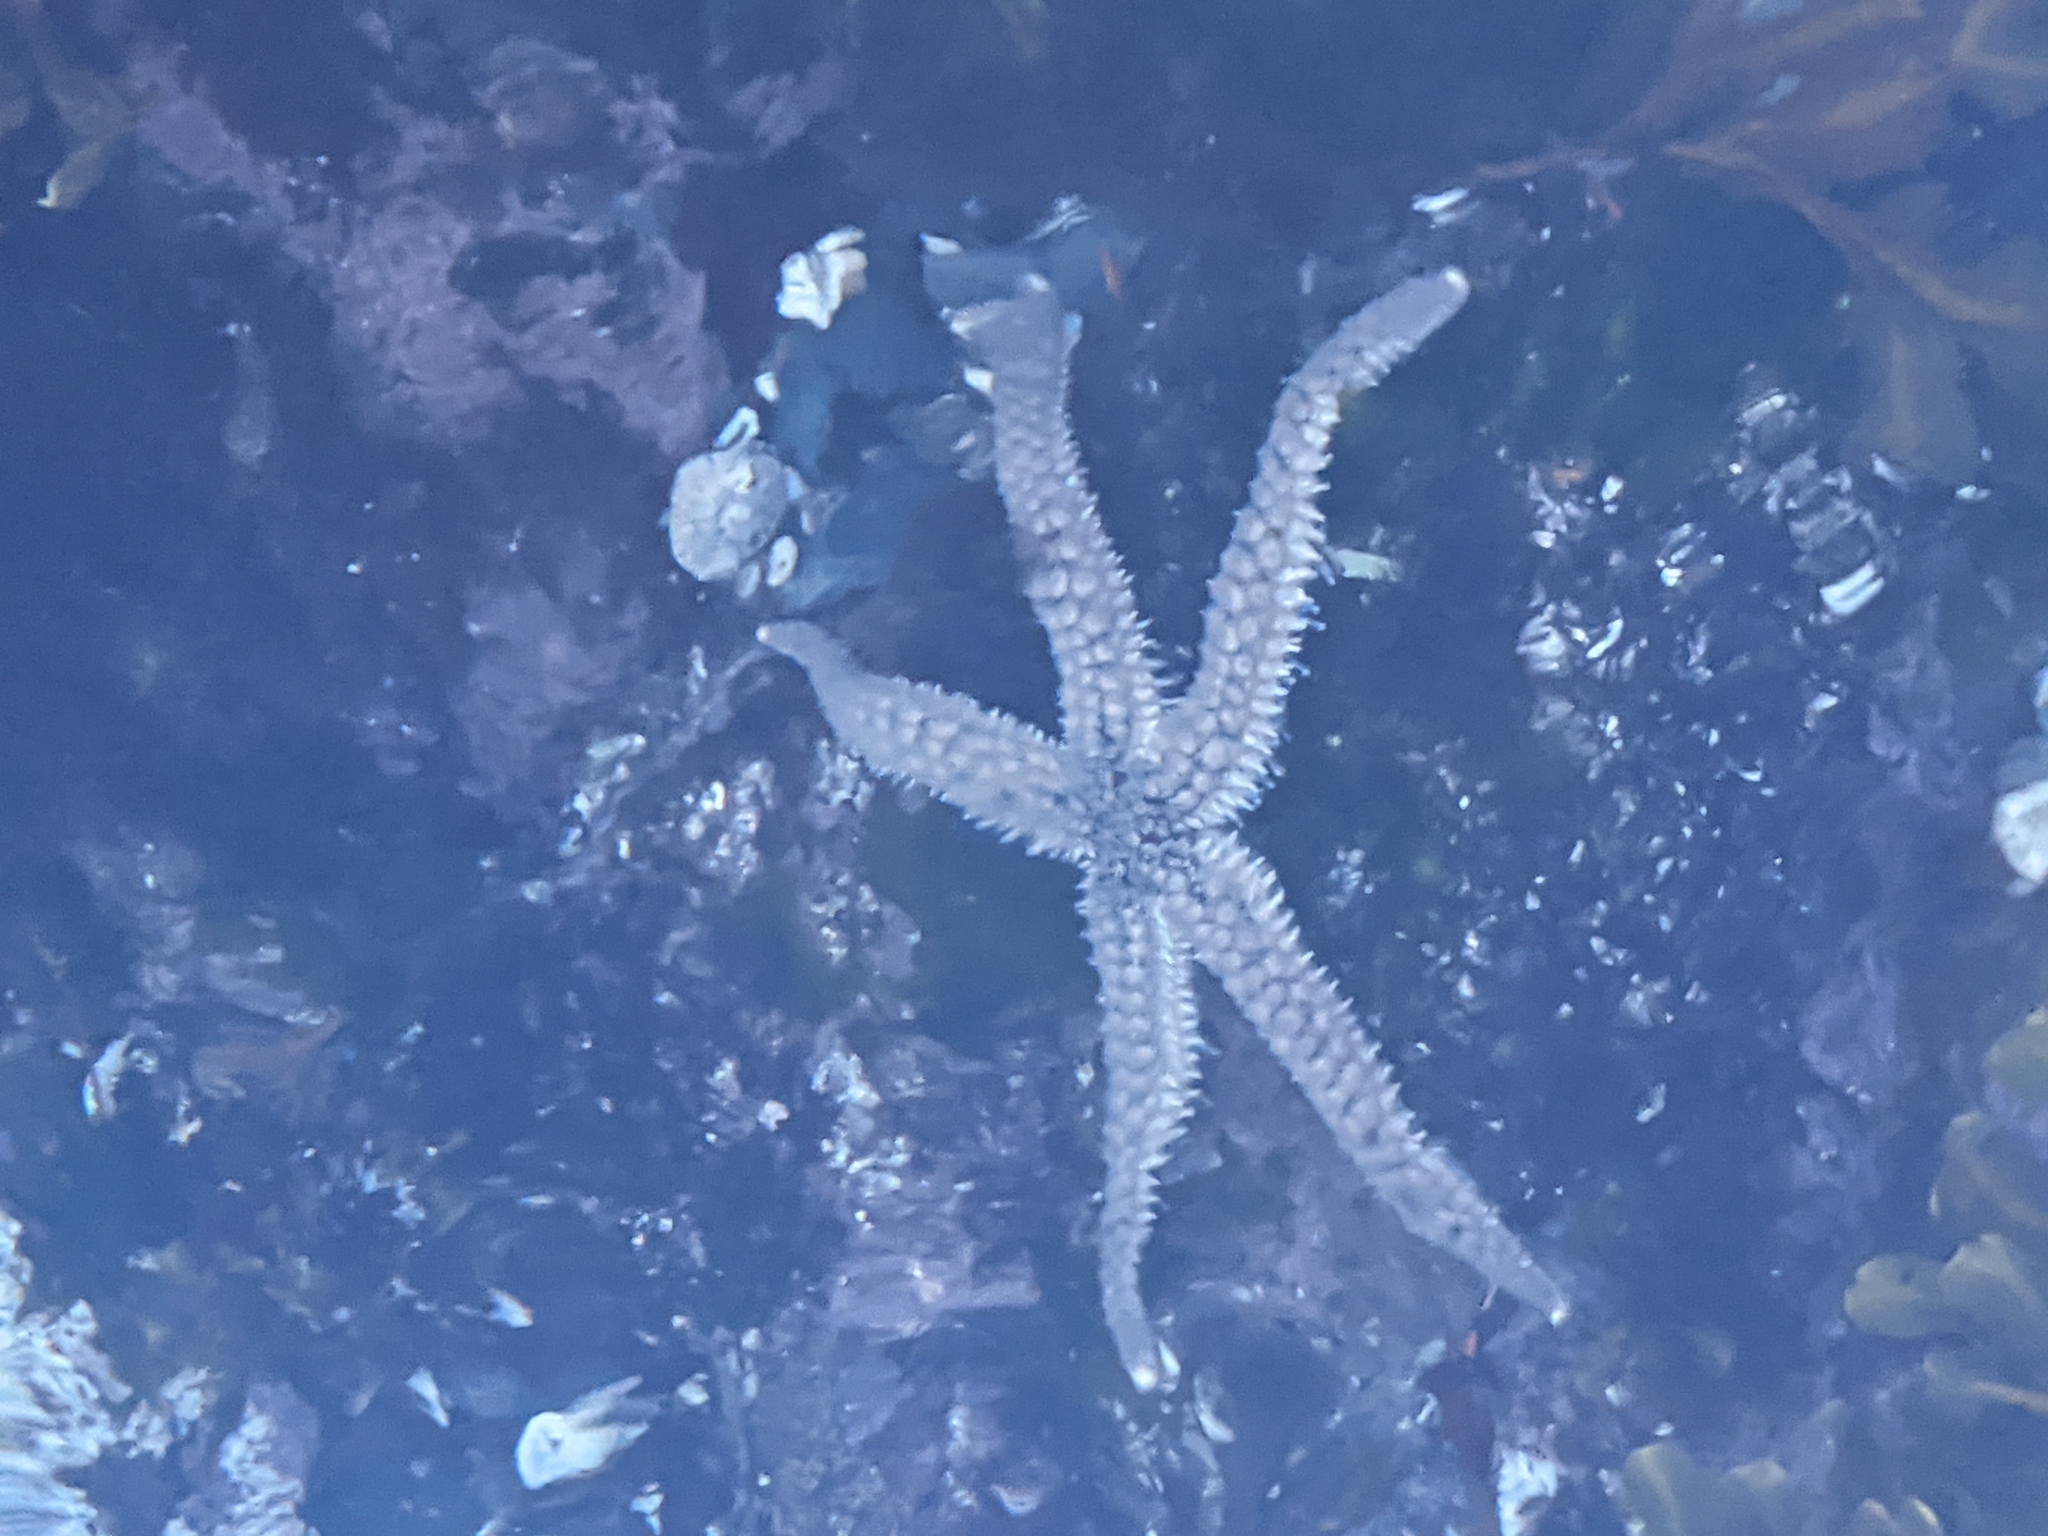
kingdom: Animalia
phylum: Echinodermata
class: Asteroidea
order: Forcipulatida
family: Asteriidae
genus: Stylasterias
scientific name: Stylasterias forreri
